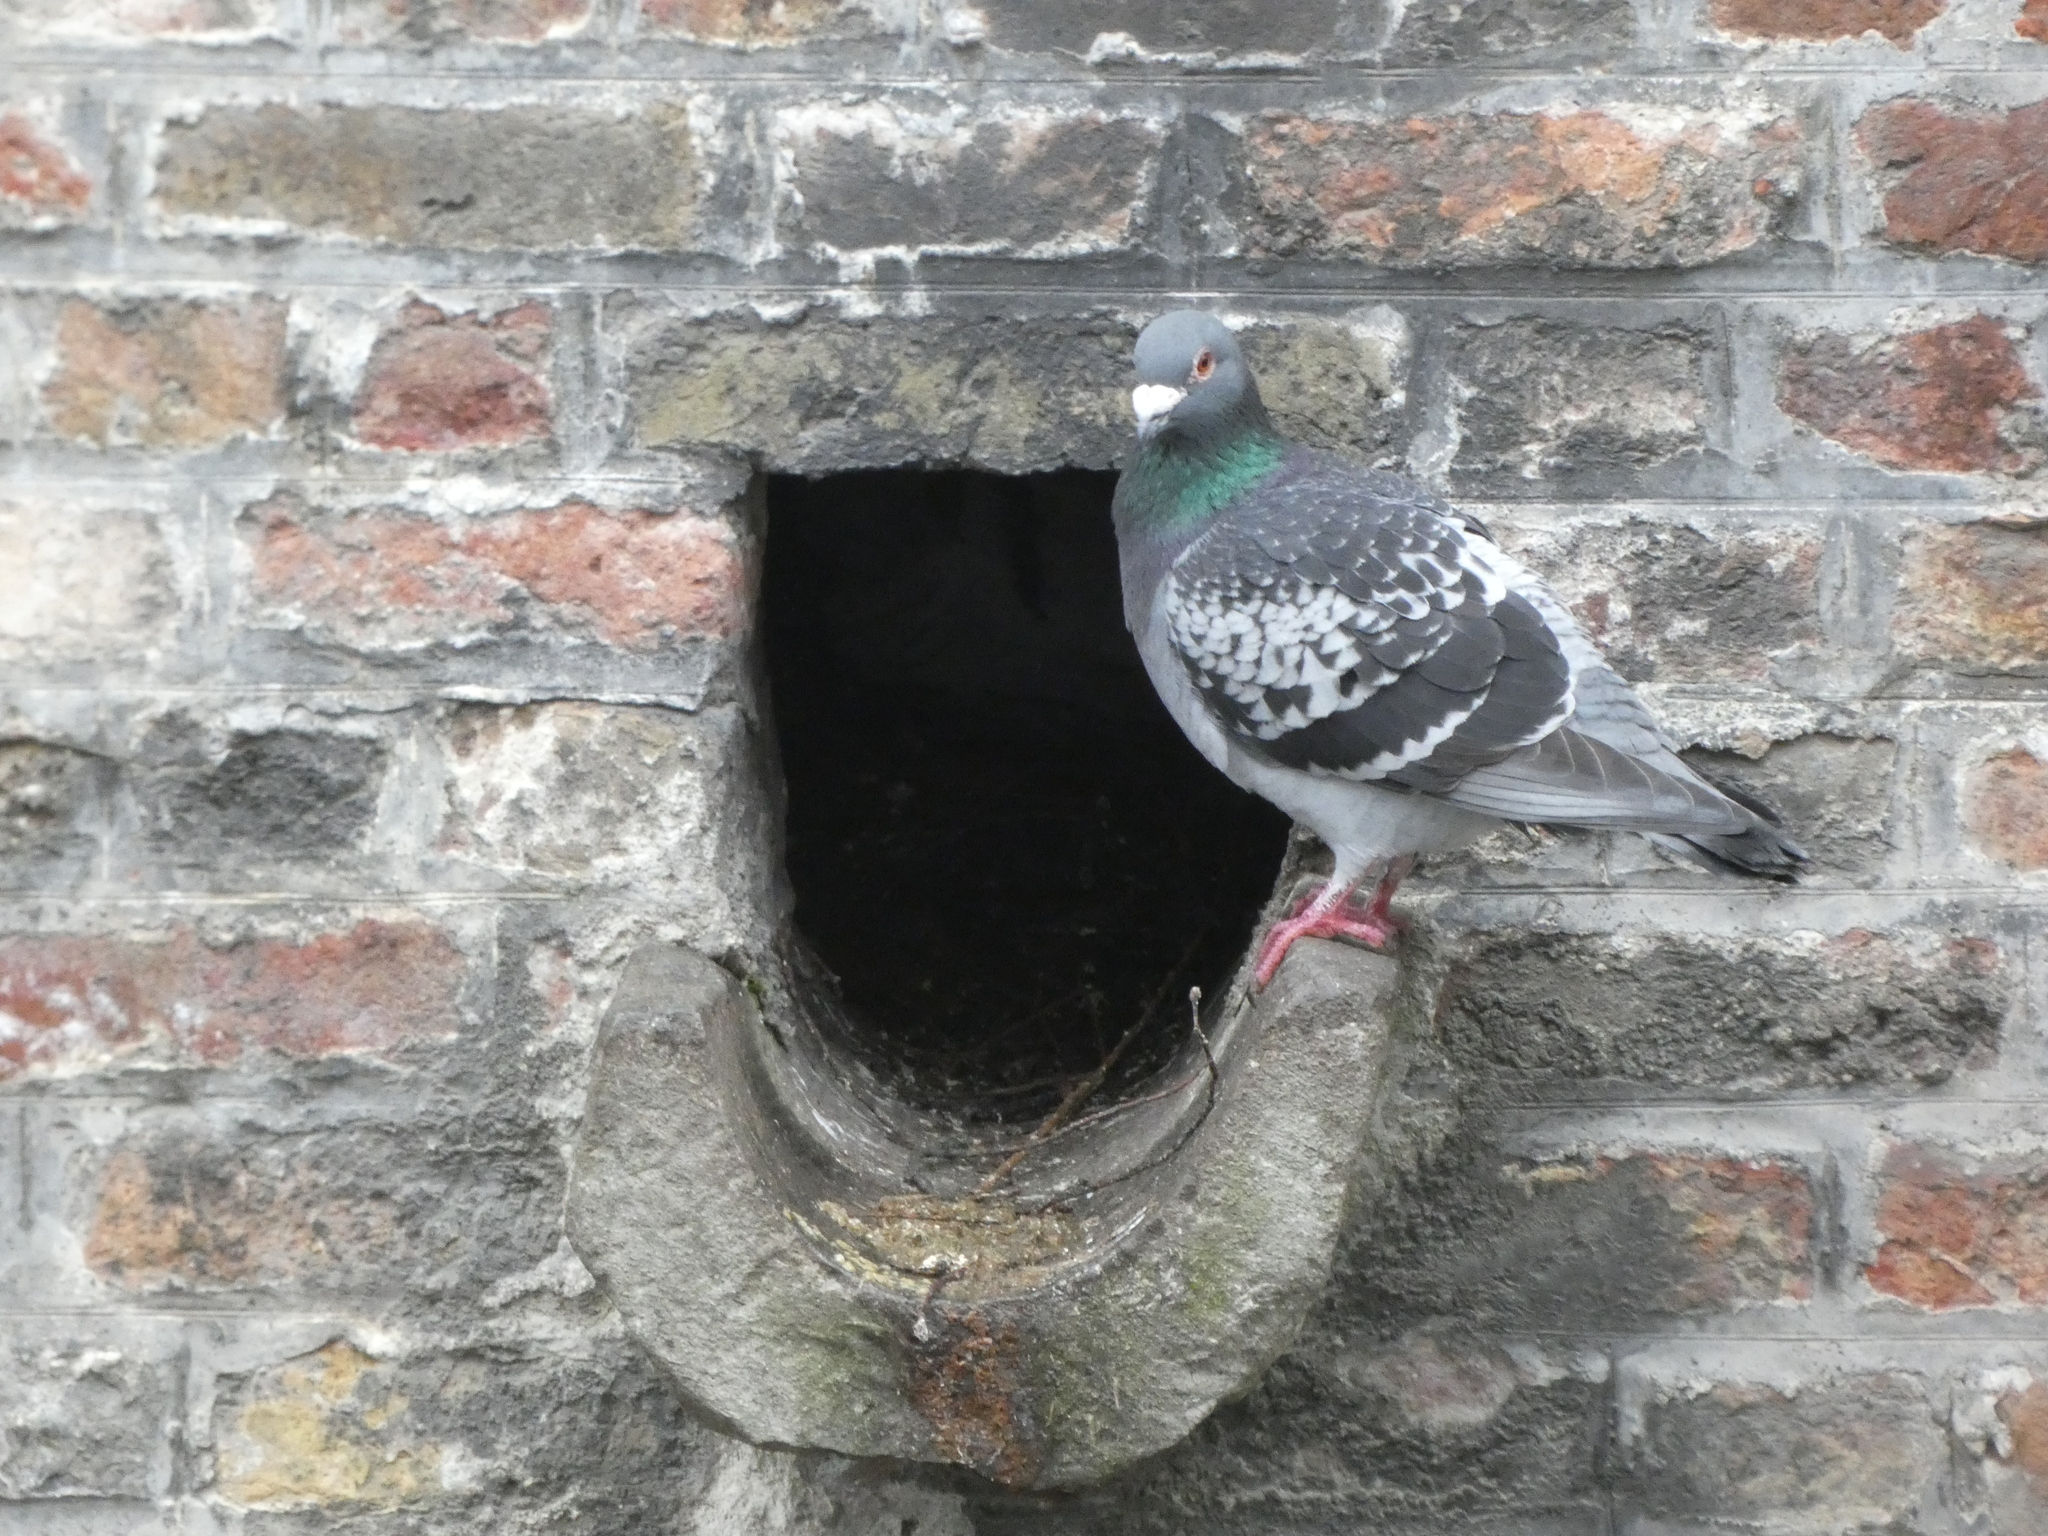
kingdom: Animalia
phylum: Chordata
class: Aves
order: Columbiformes
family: Columbidae
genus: Columba
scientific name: Columba livia
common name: Rock pigeon
